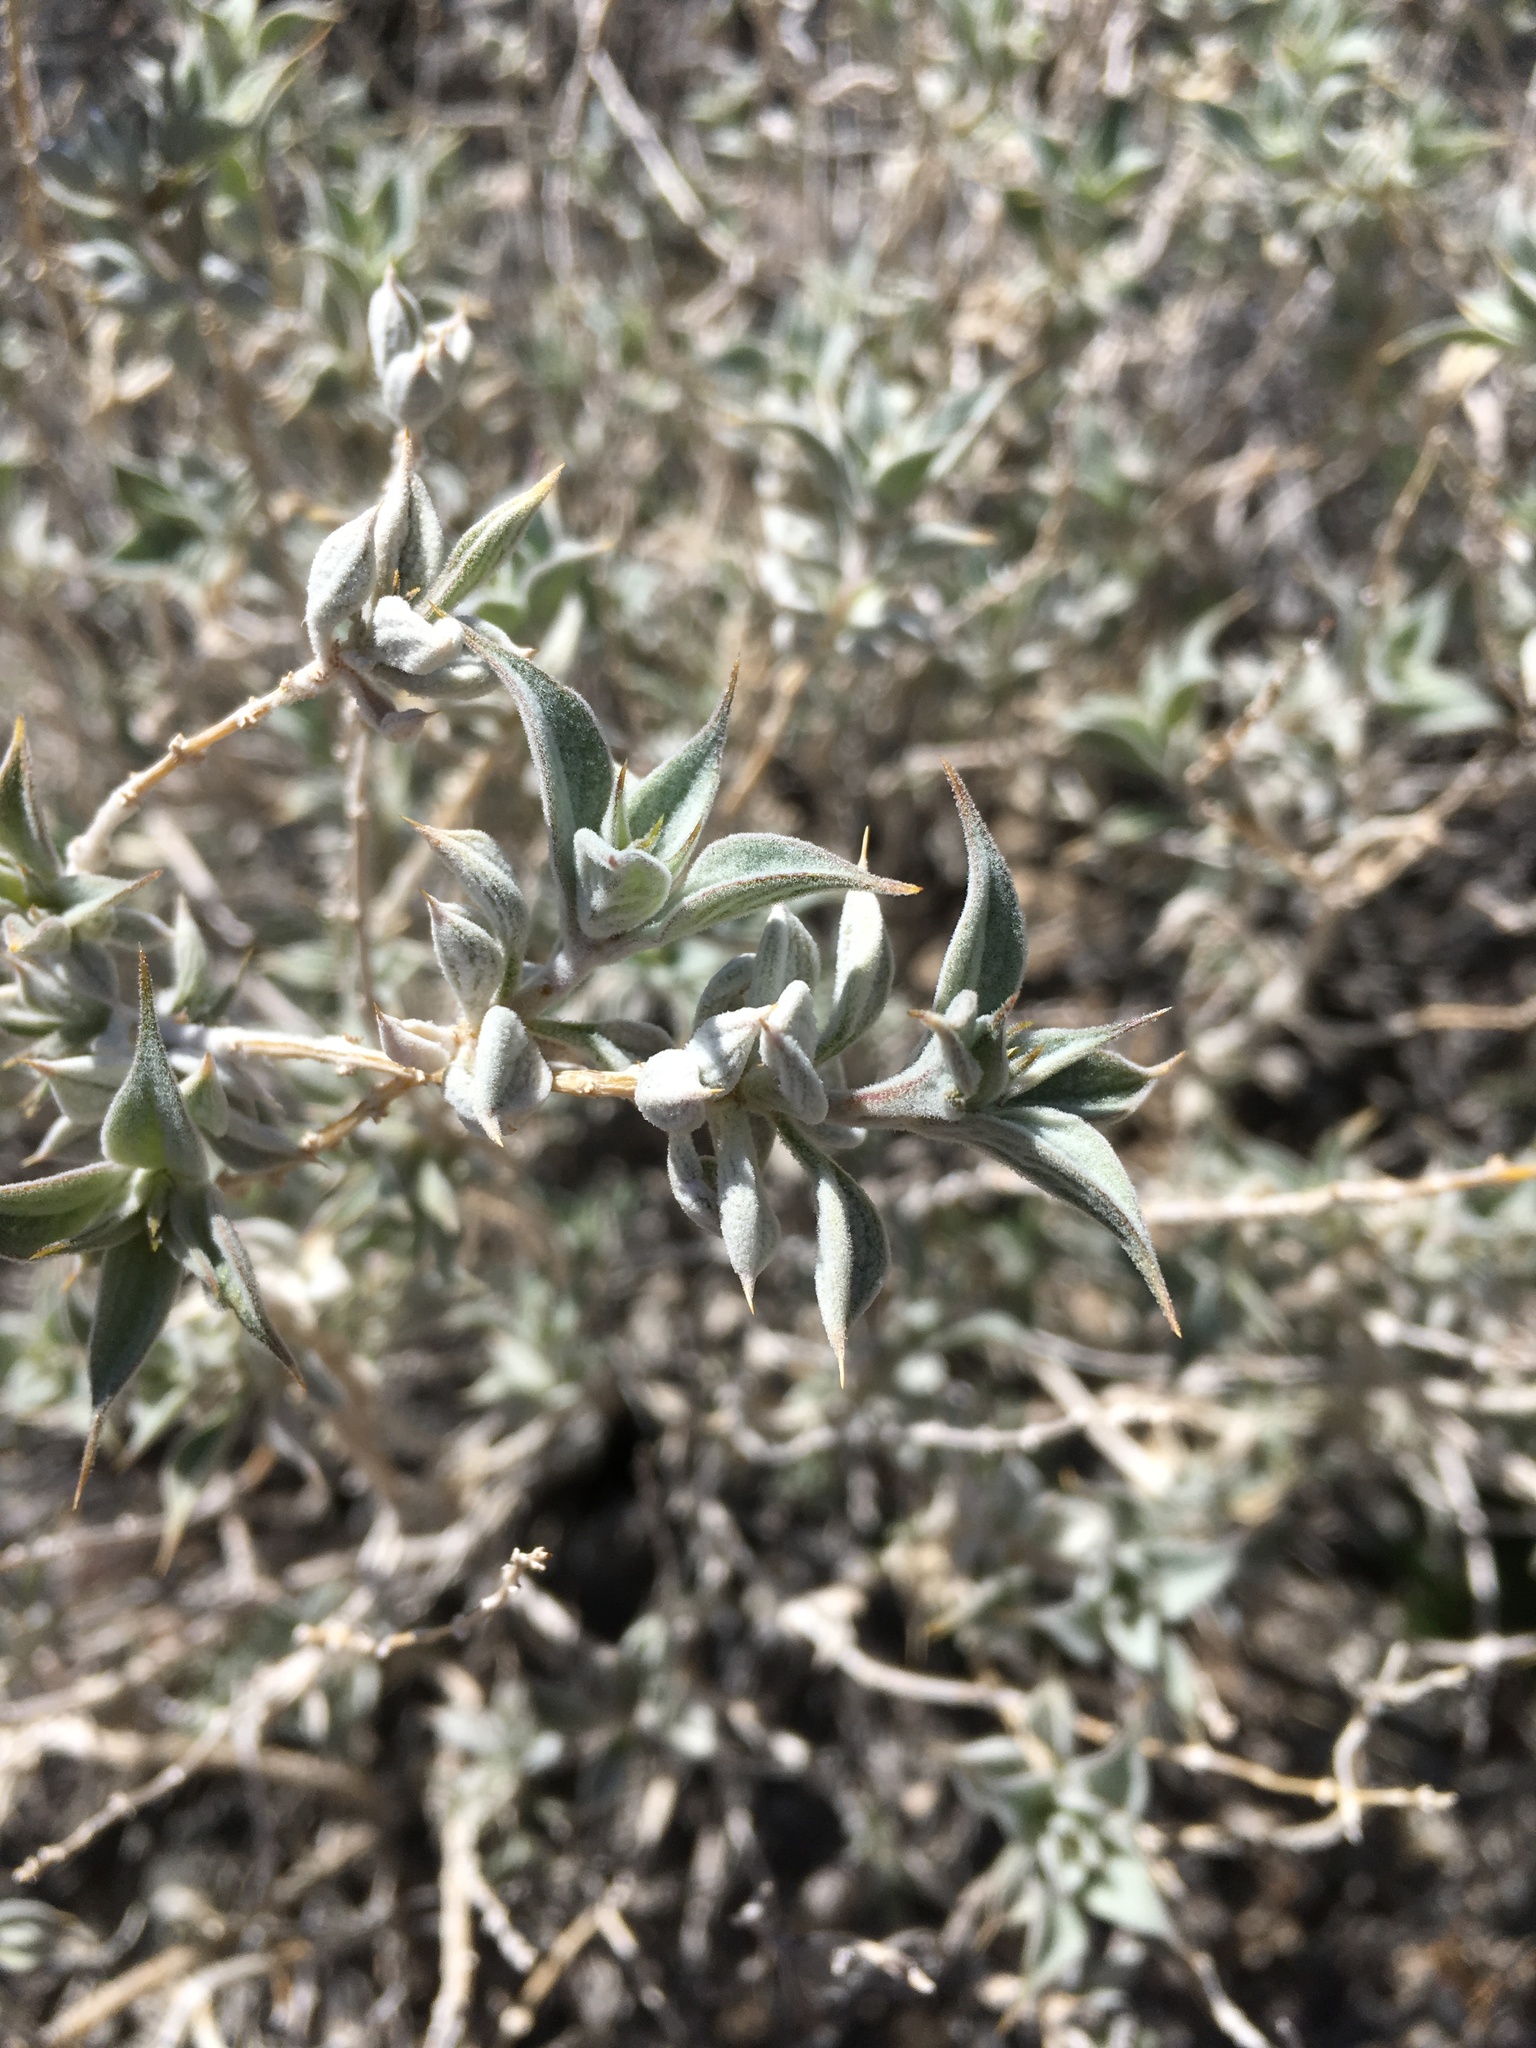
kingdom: Plantae
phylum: Tracheophyta
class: Magnoliopsida
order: Lamiales
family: Lamiaceae
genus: Salvia
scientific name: Salvia funerea
